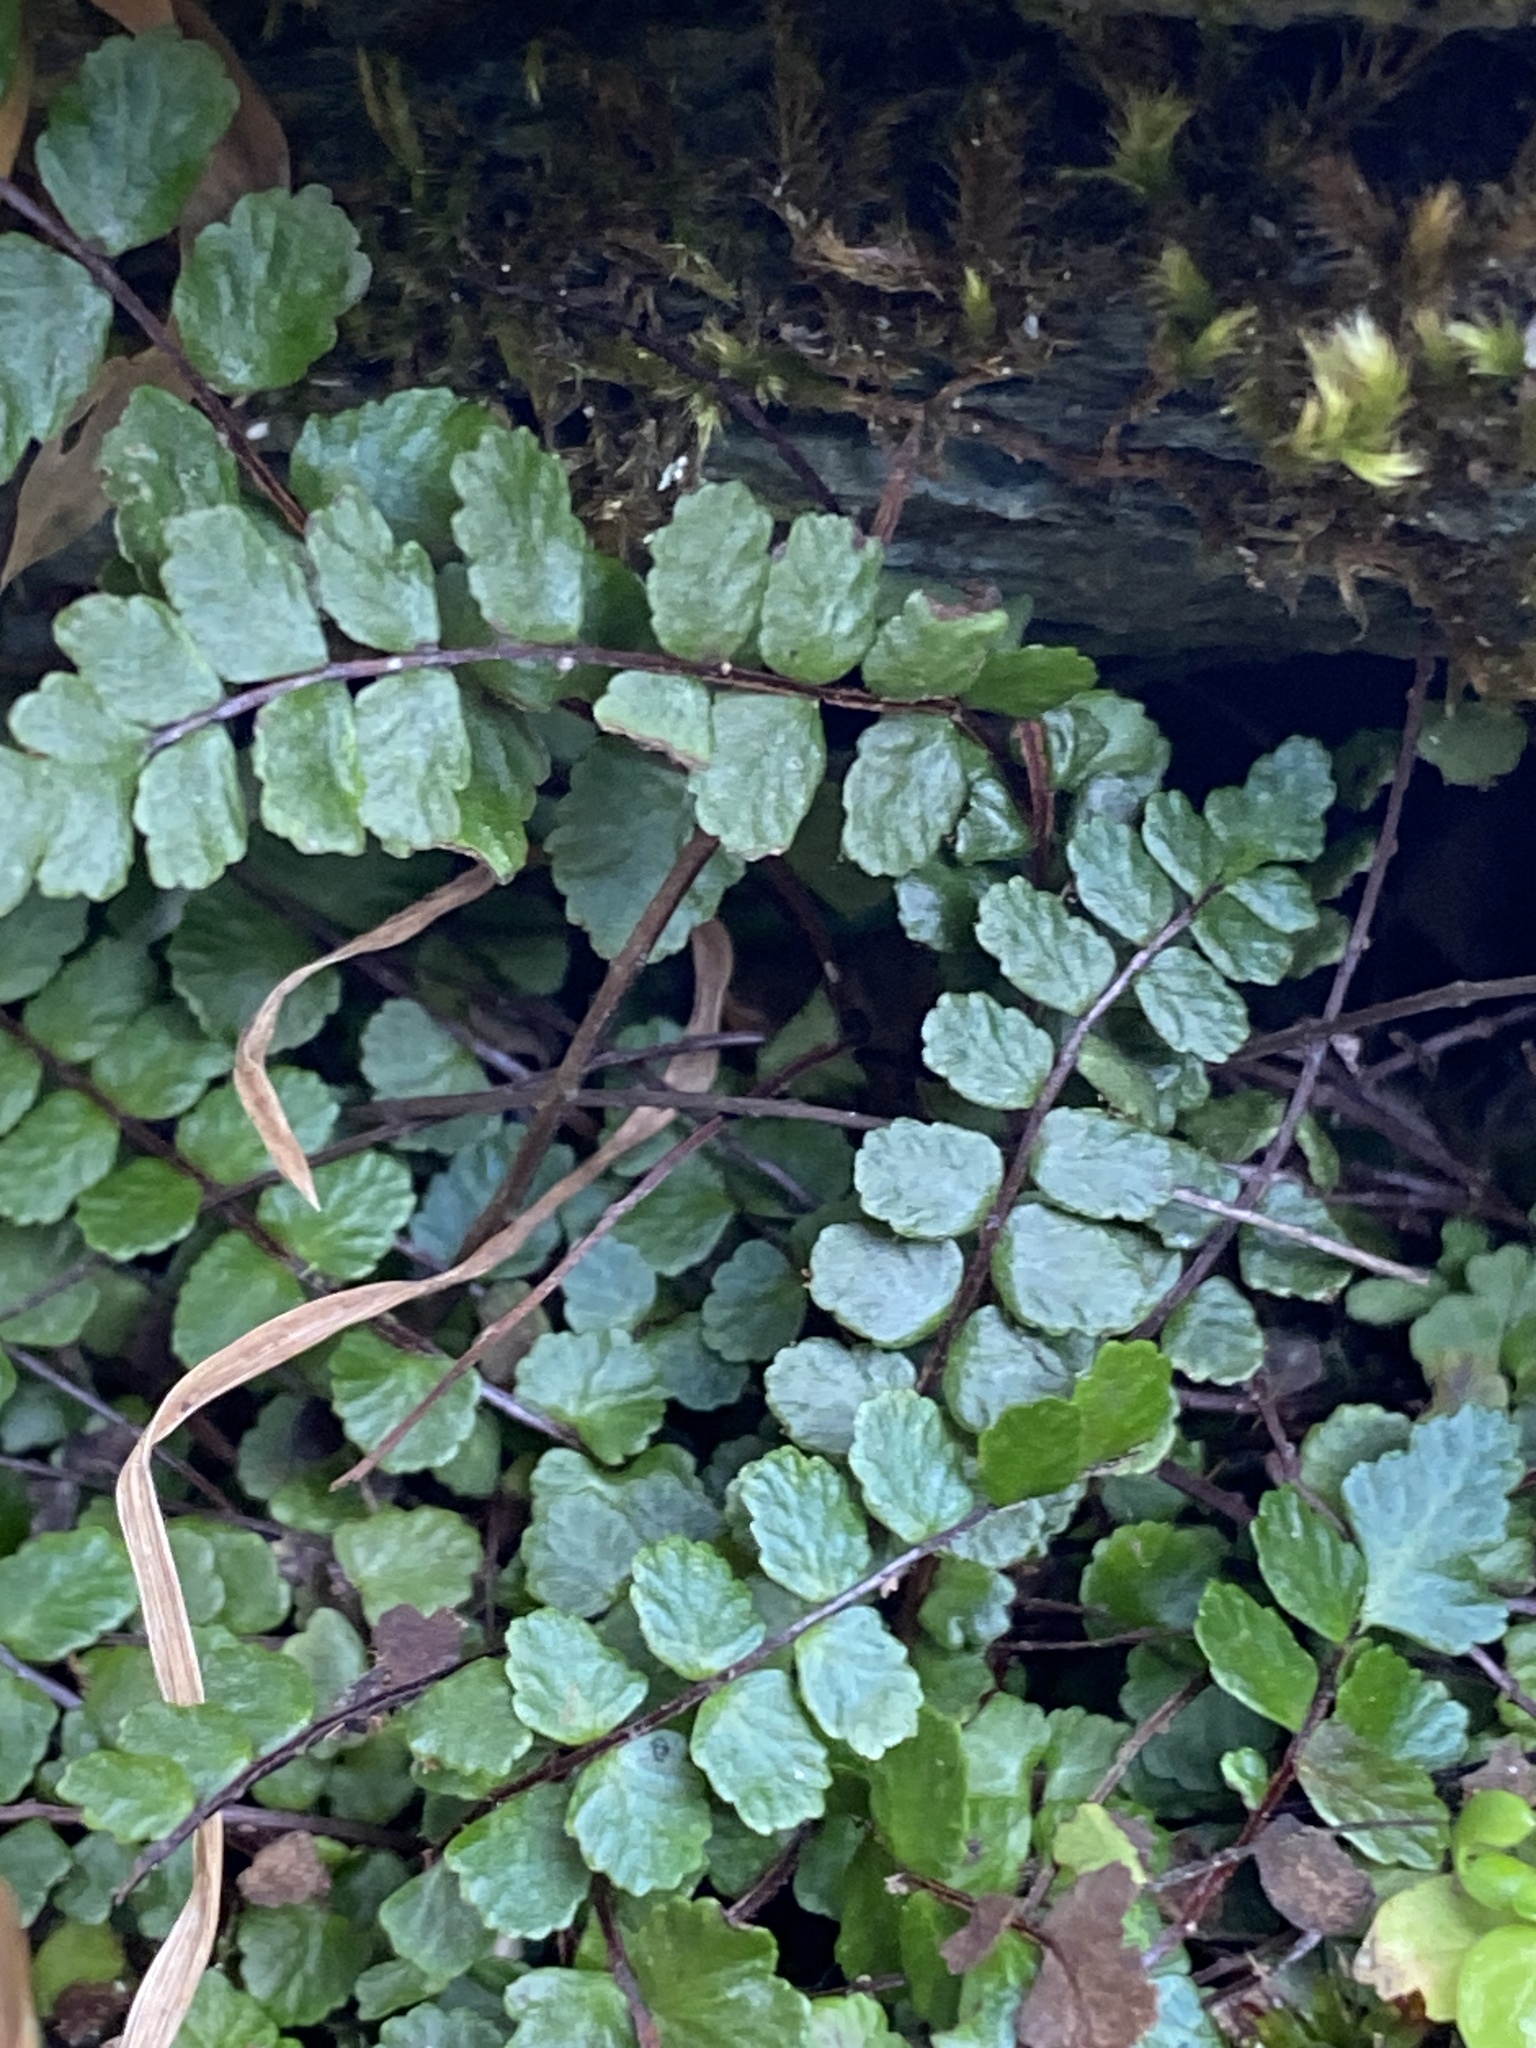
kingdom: Plantae
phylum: Tracheophyta
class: Polypodiopsida
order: Polypodiales
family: Aspleniaceae
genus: Asplenium
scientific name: Asplenium trichomanes
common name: Maidenhair spleenwort
